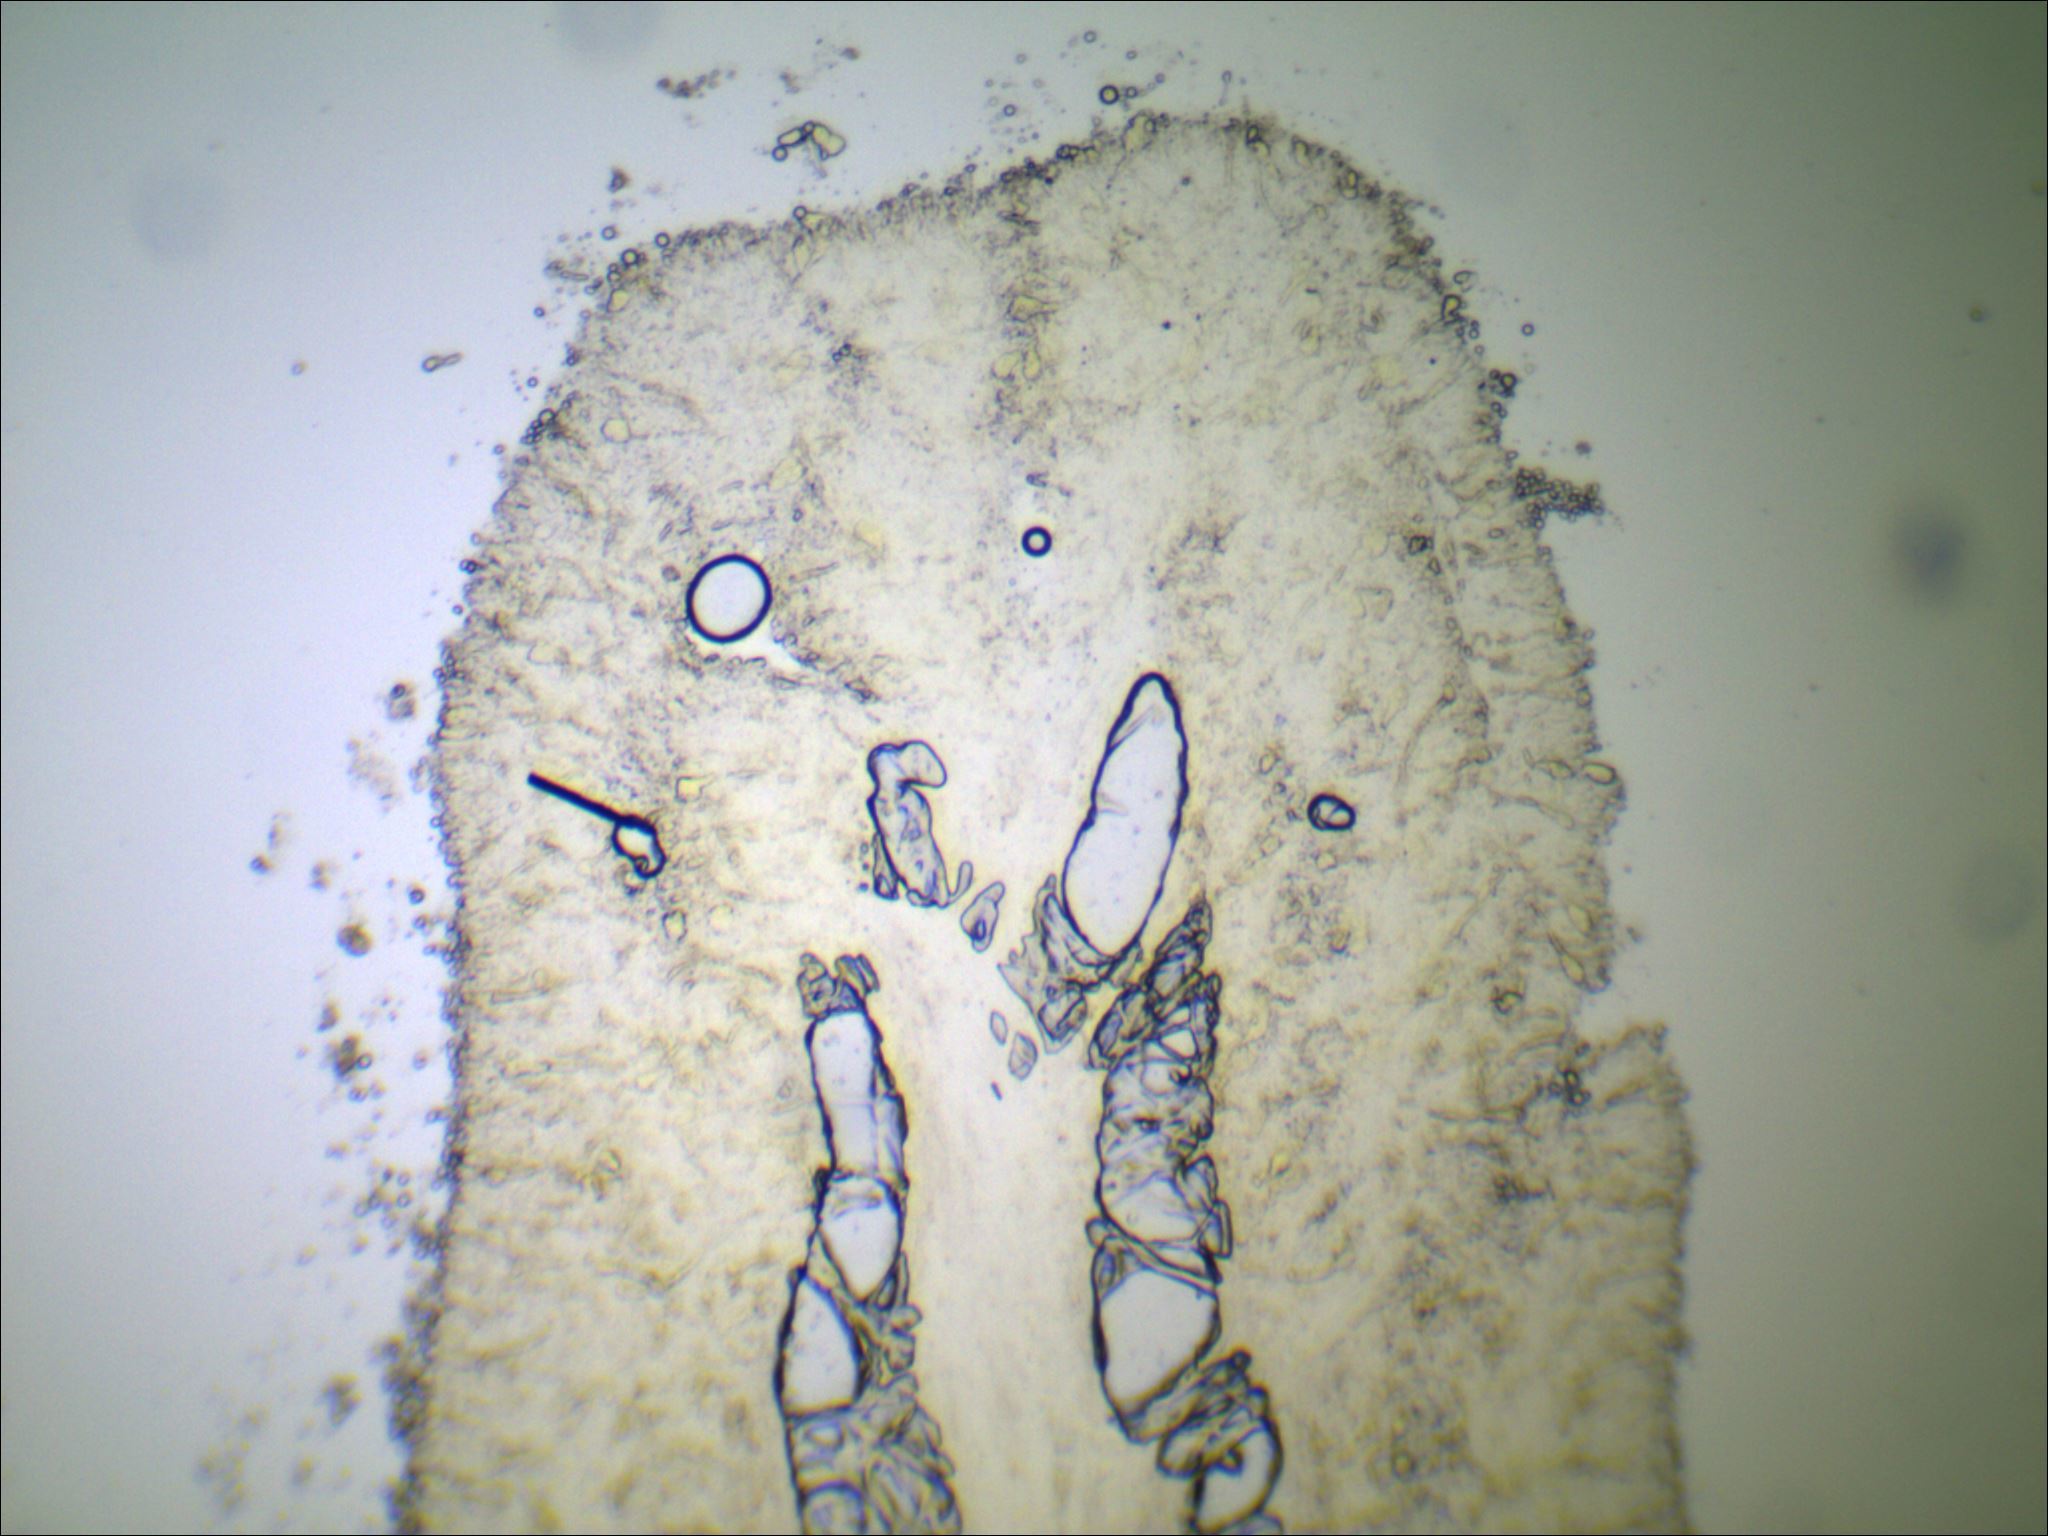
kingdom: Fungi
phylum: Basidiomycota
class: Agaricomycetes
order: Agaricales
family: Tricholomataceae
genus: Pseudoomphalina
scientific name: Pseudoomphalina compressipes
